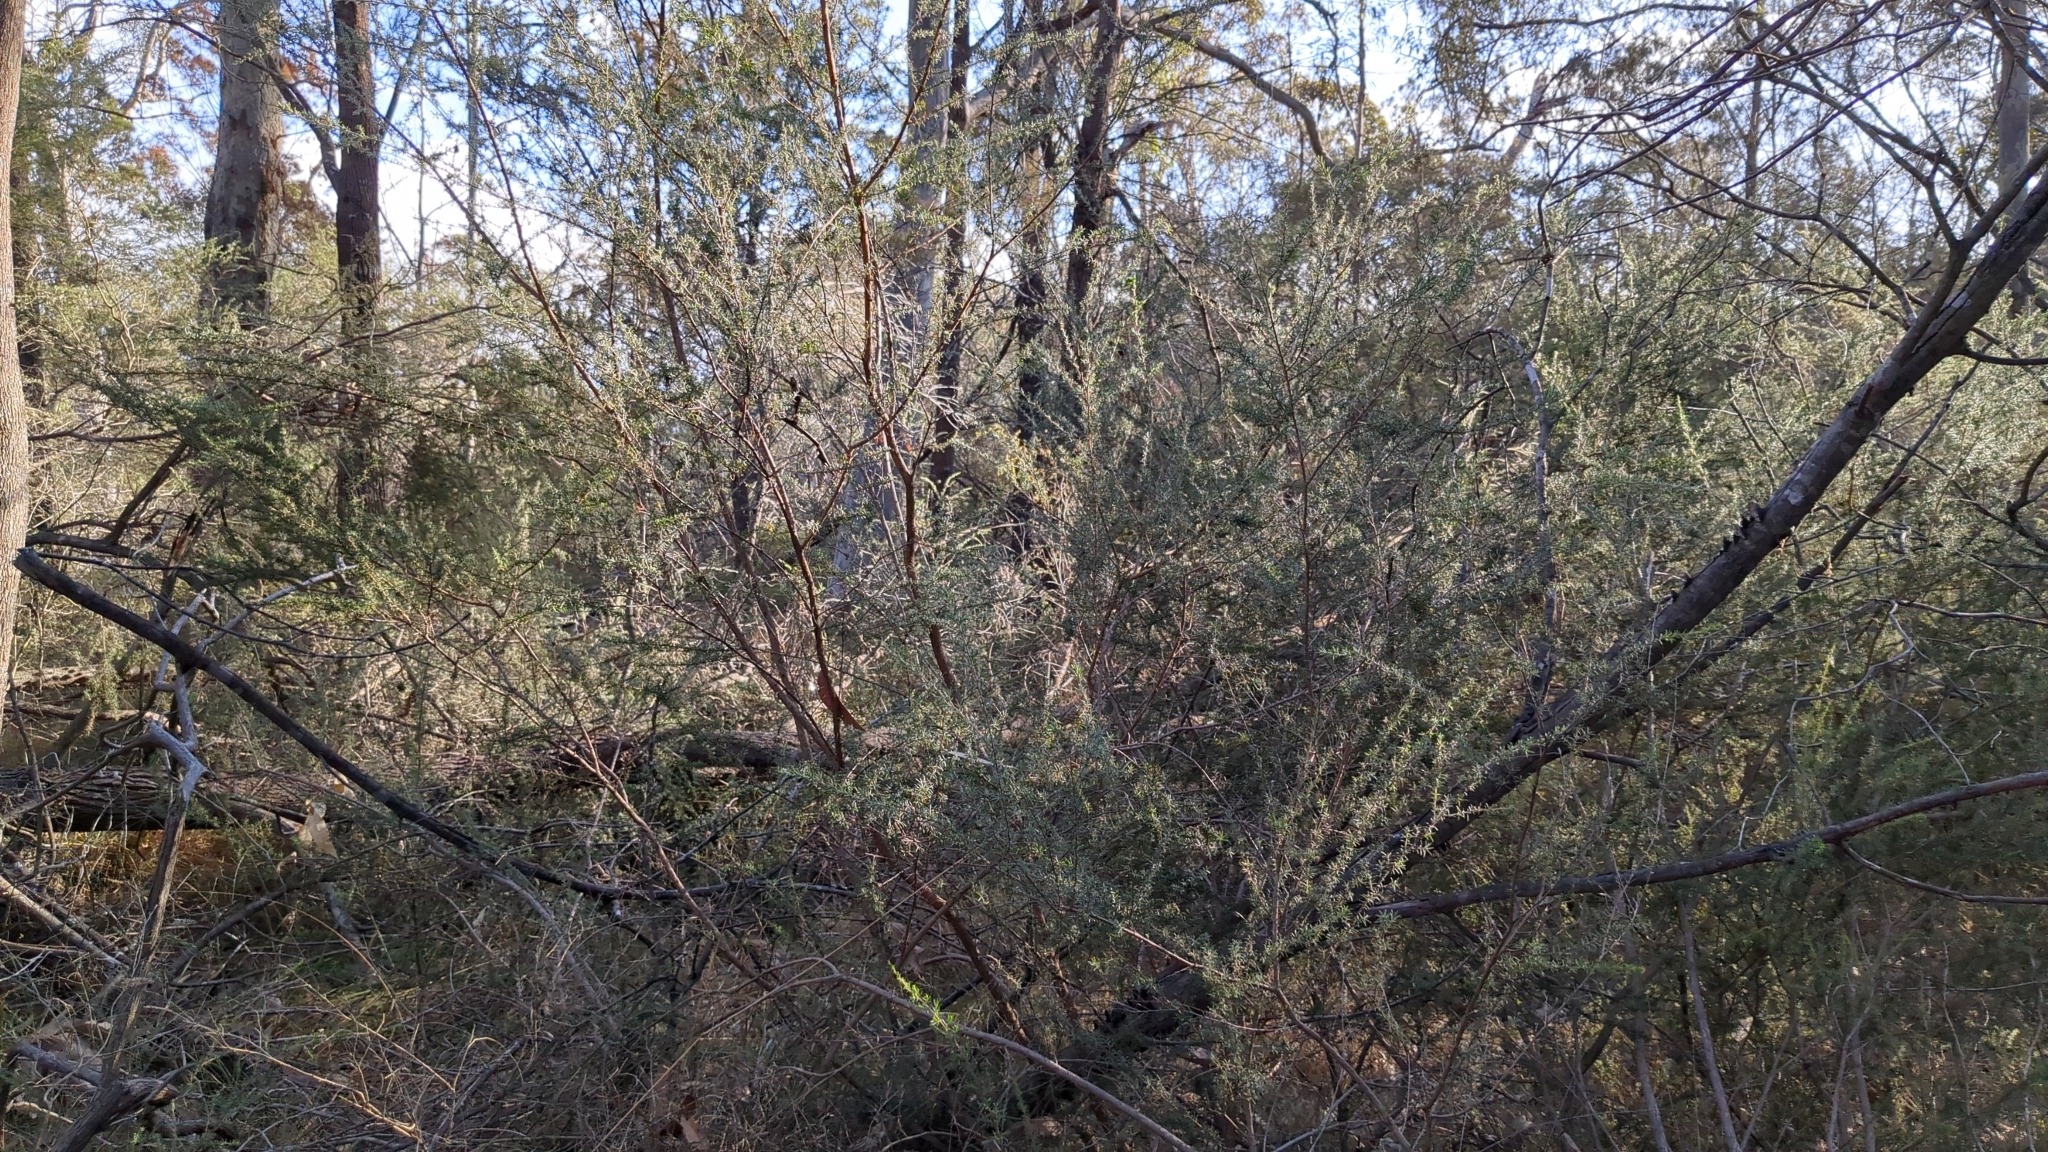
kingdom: Plantae
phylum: Tracheophyta
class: Magnoliopsida
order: Myrtales
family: Myrtaceae
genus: Kunzea
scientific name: Kunzea ambigua
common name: Tickbush
